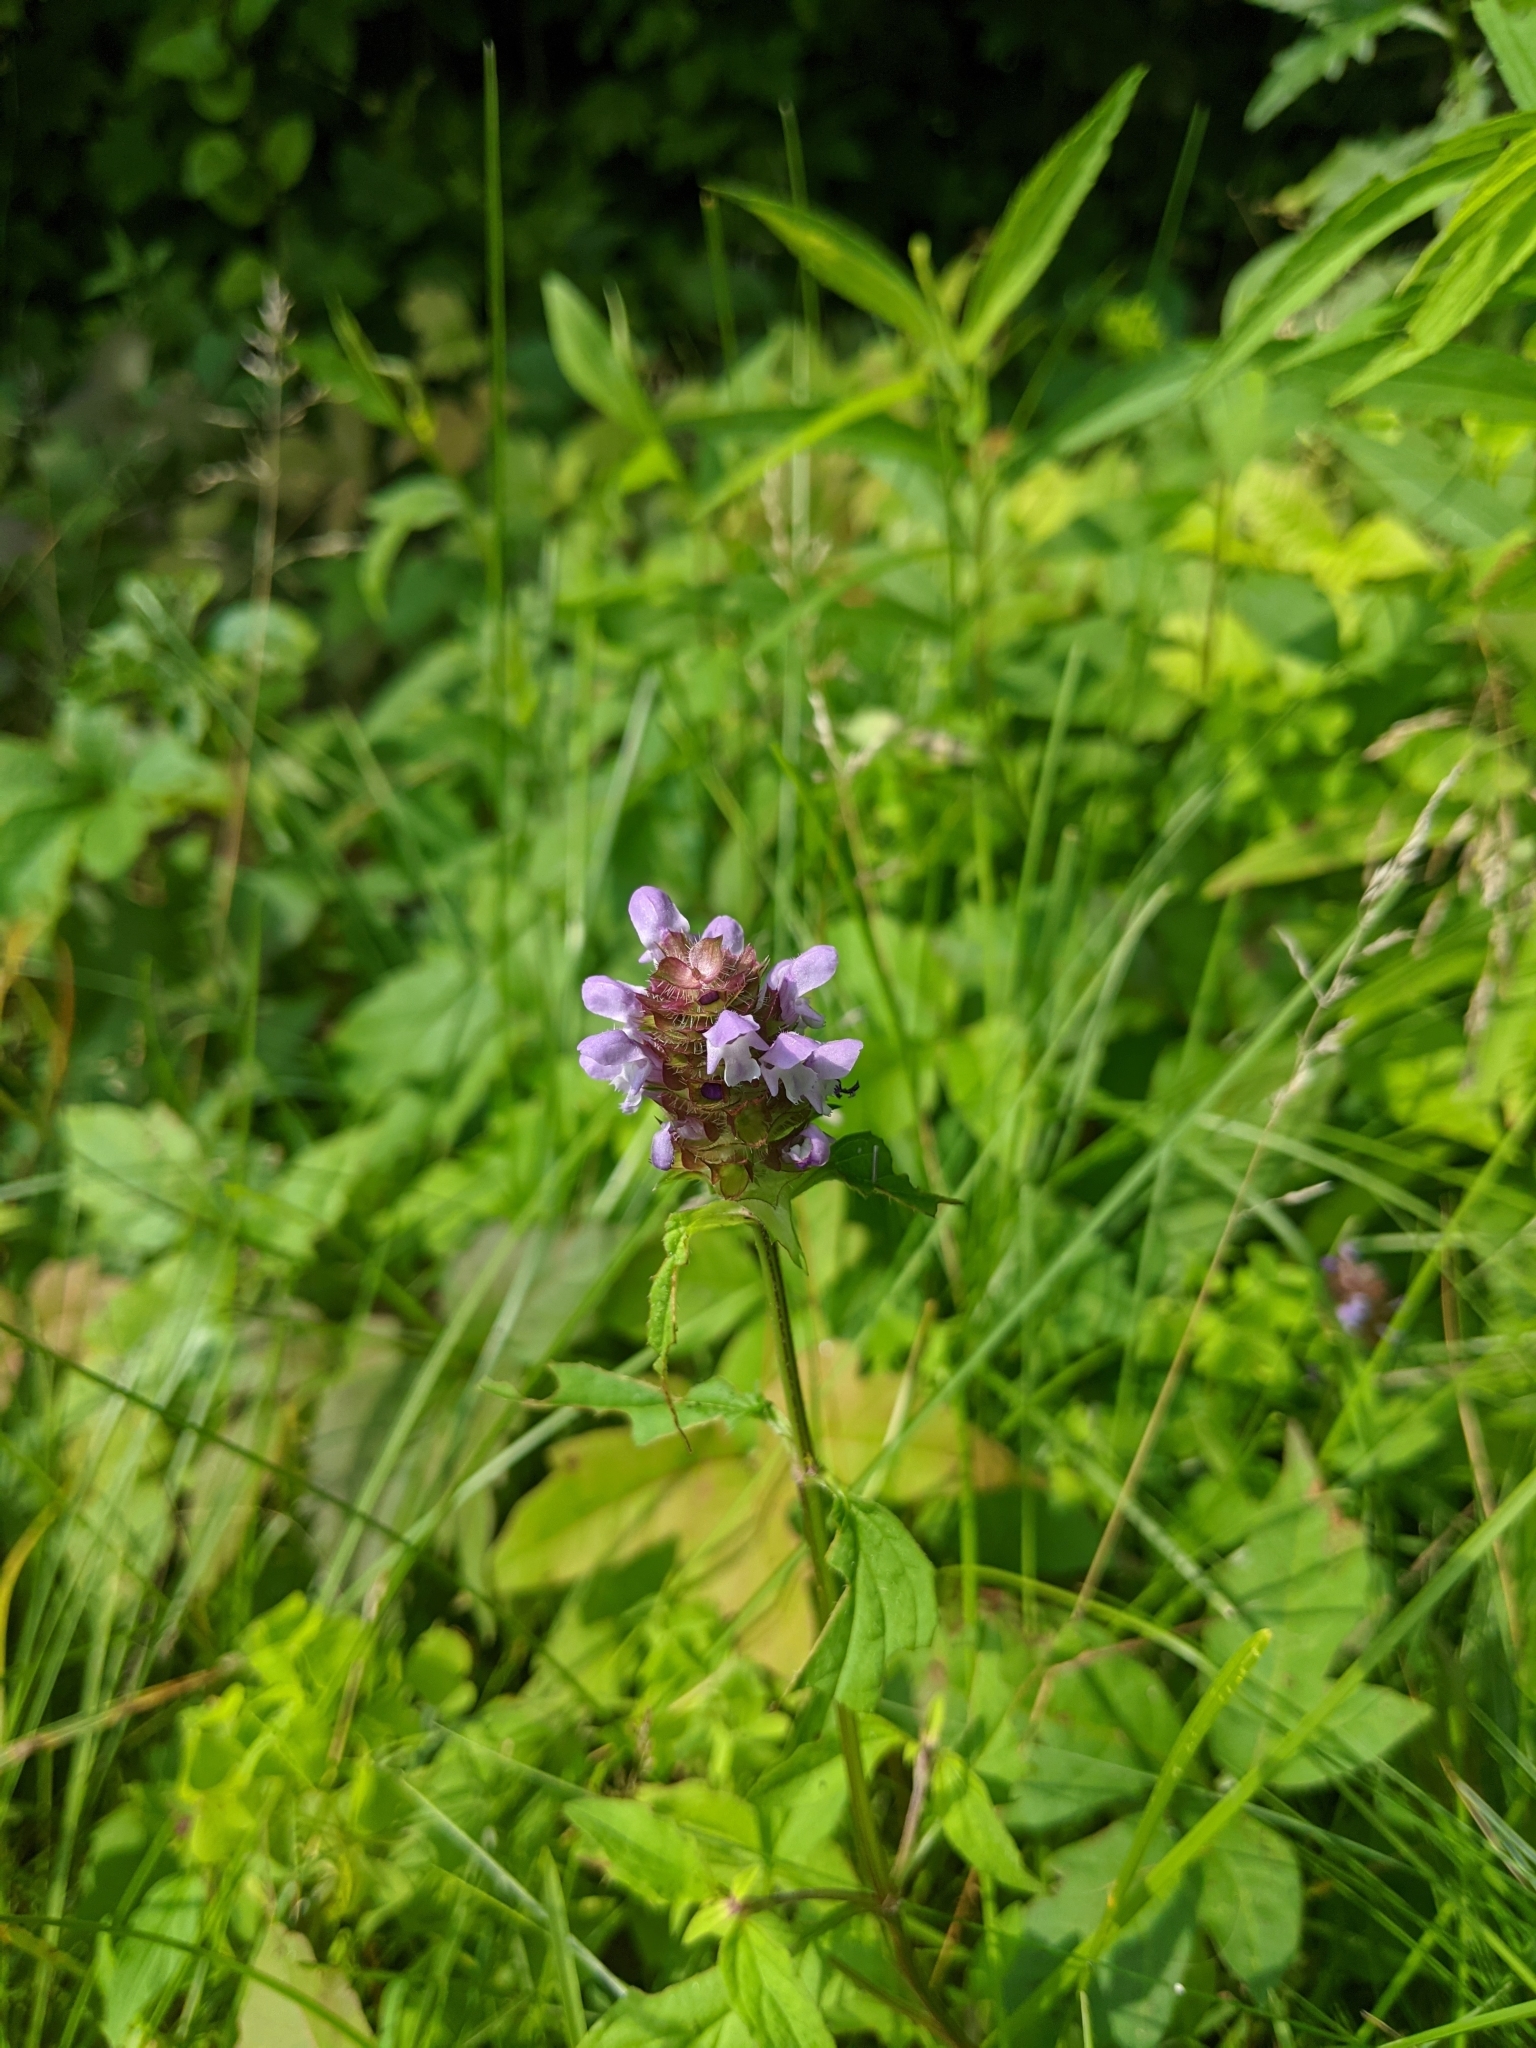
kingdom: Plantae
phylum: Tracheophyta
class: Magnoliopsida
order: Lamiales
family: Lamiaceae
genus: Prunella
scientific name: Prunella vulgaris
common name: Heal-all
